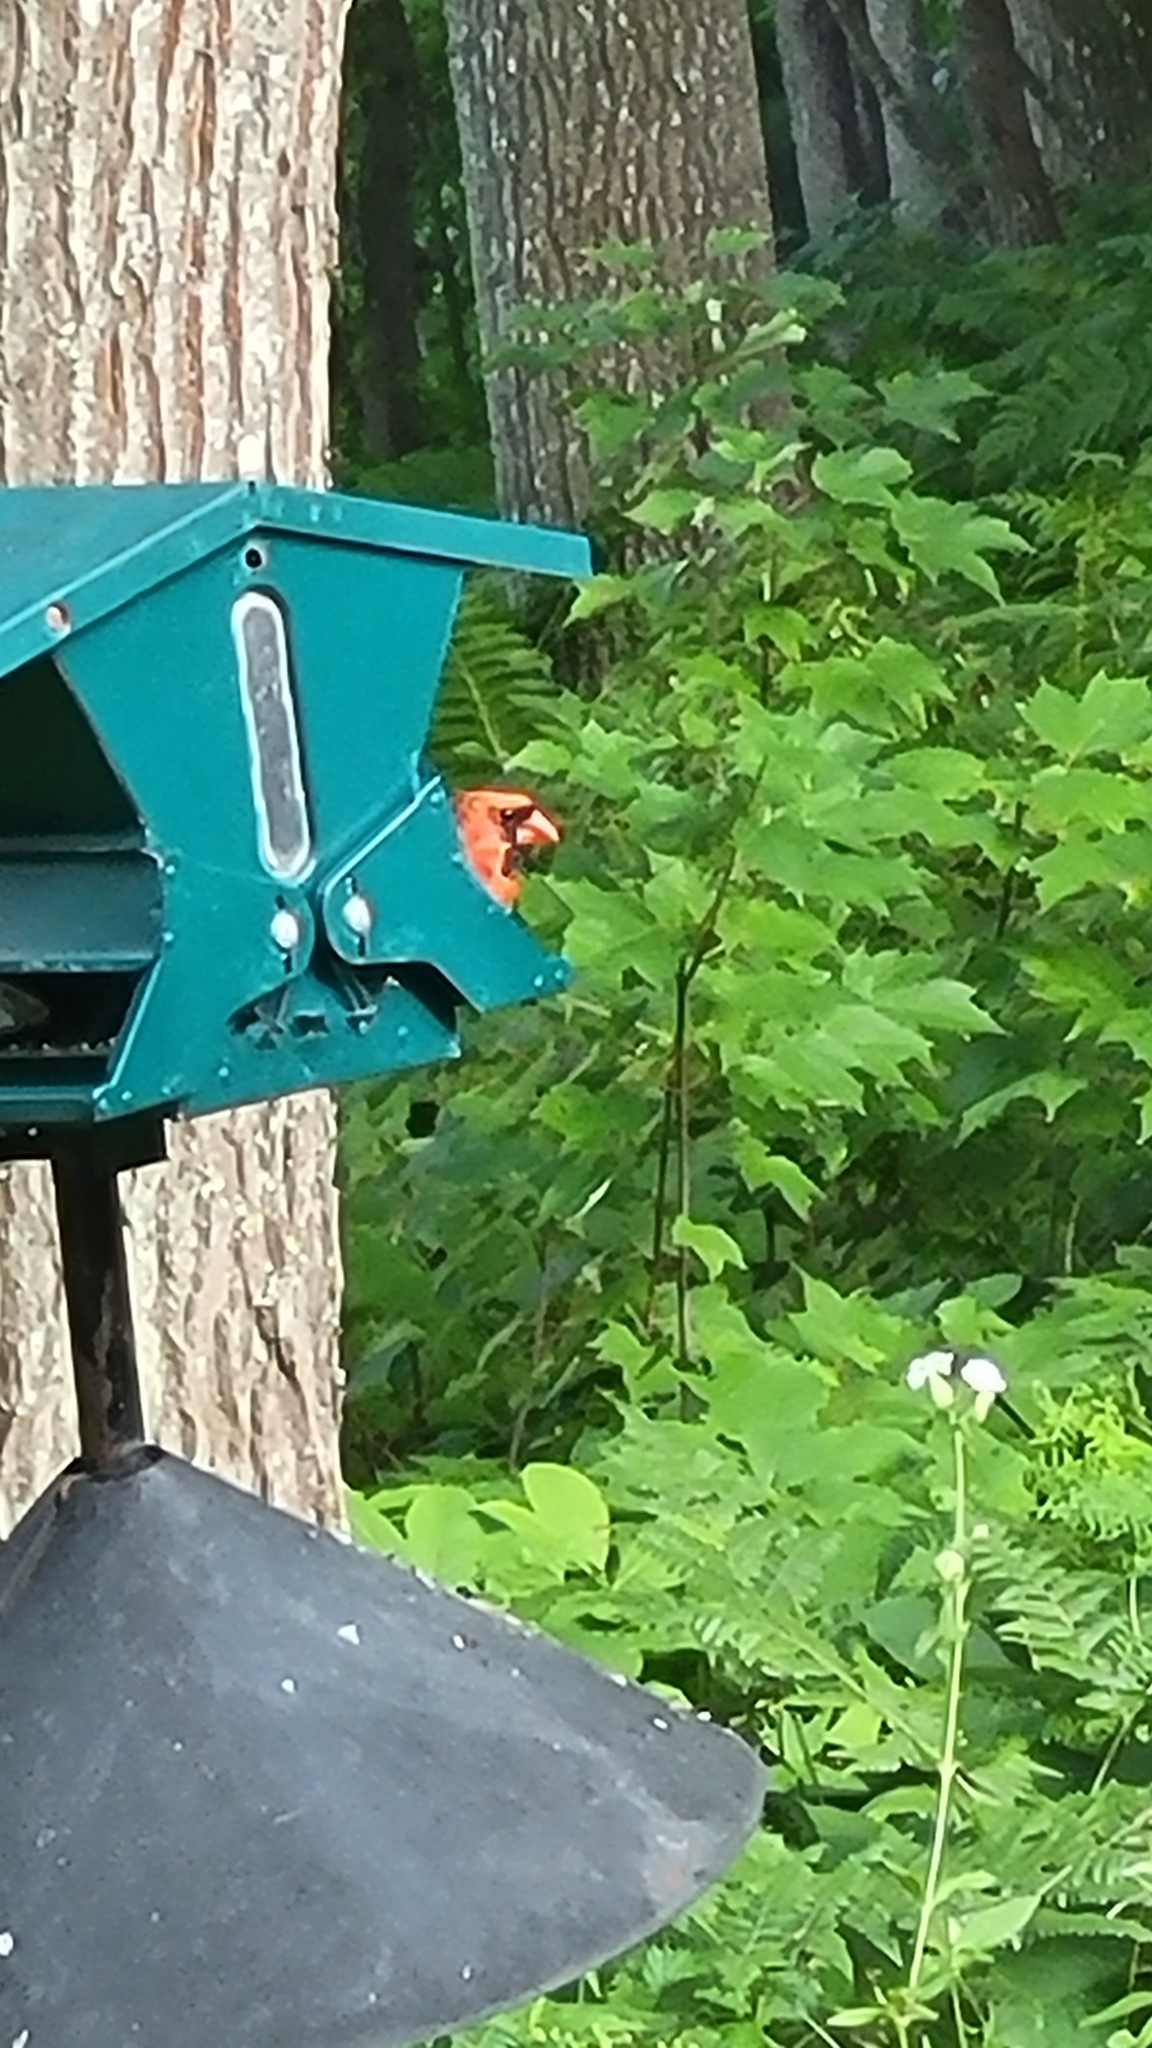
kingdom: Animalia
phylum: Chordata
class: Aves
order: Passeriformes
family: Cardinalidae
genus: Cardinalis
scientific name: Cardinalis cardinalis
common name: Northern cardinal
